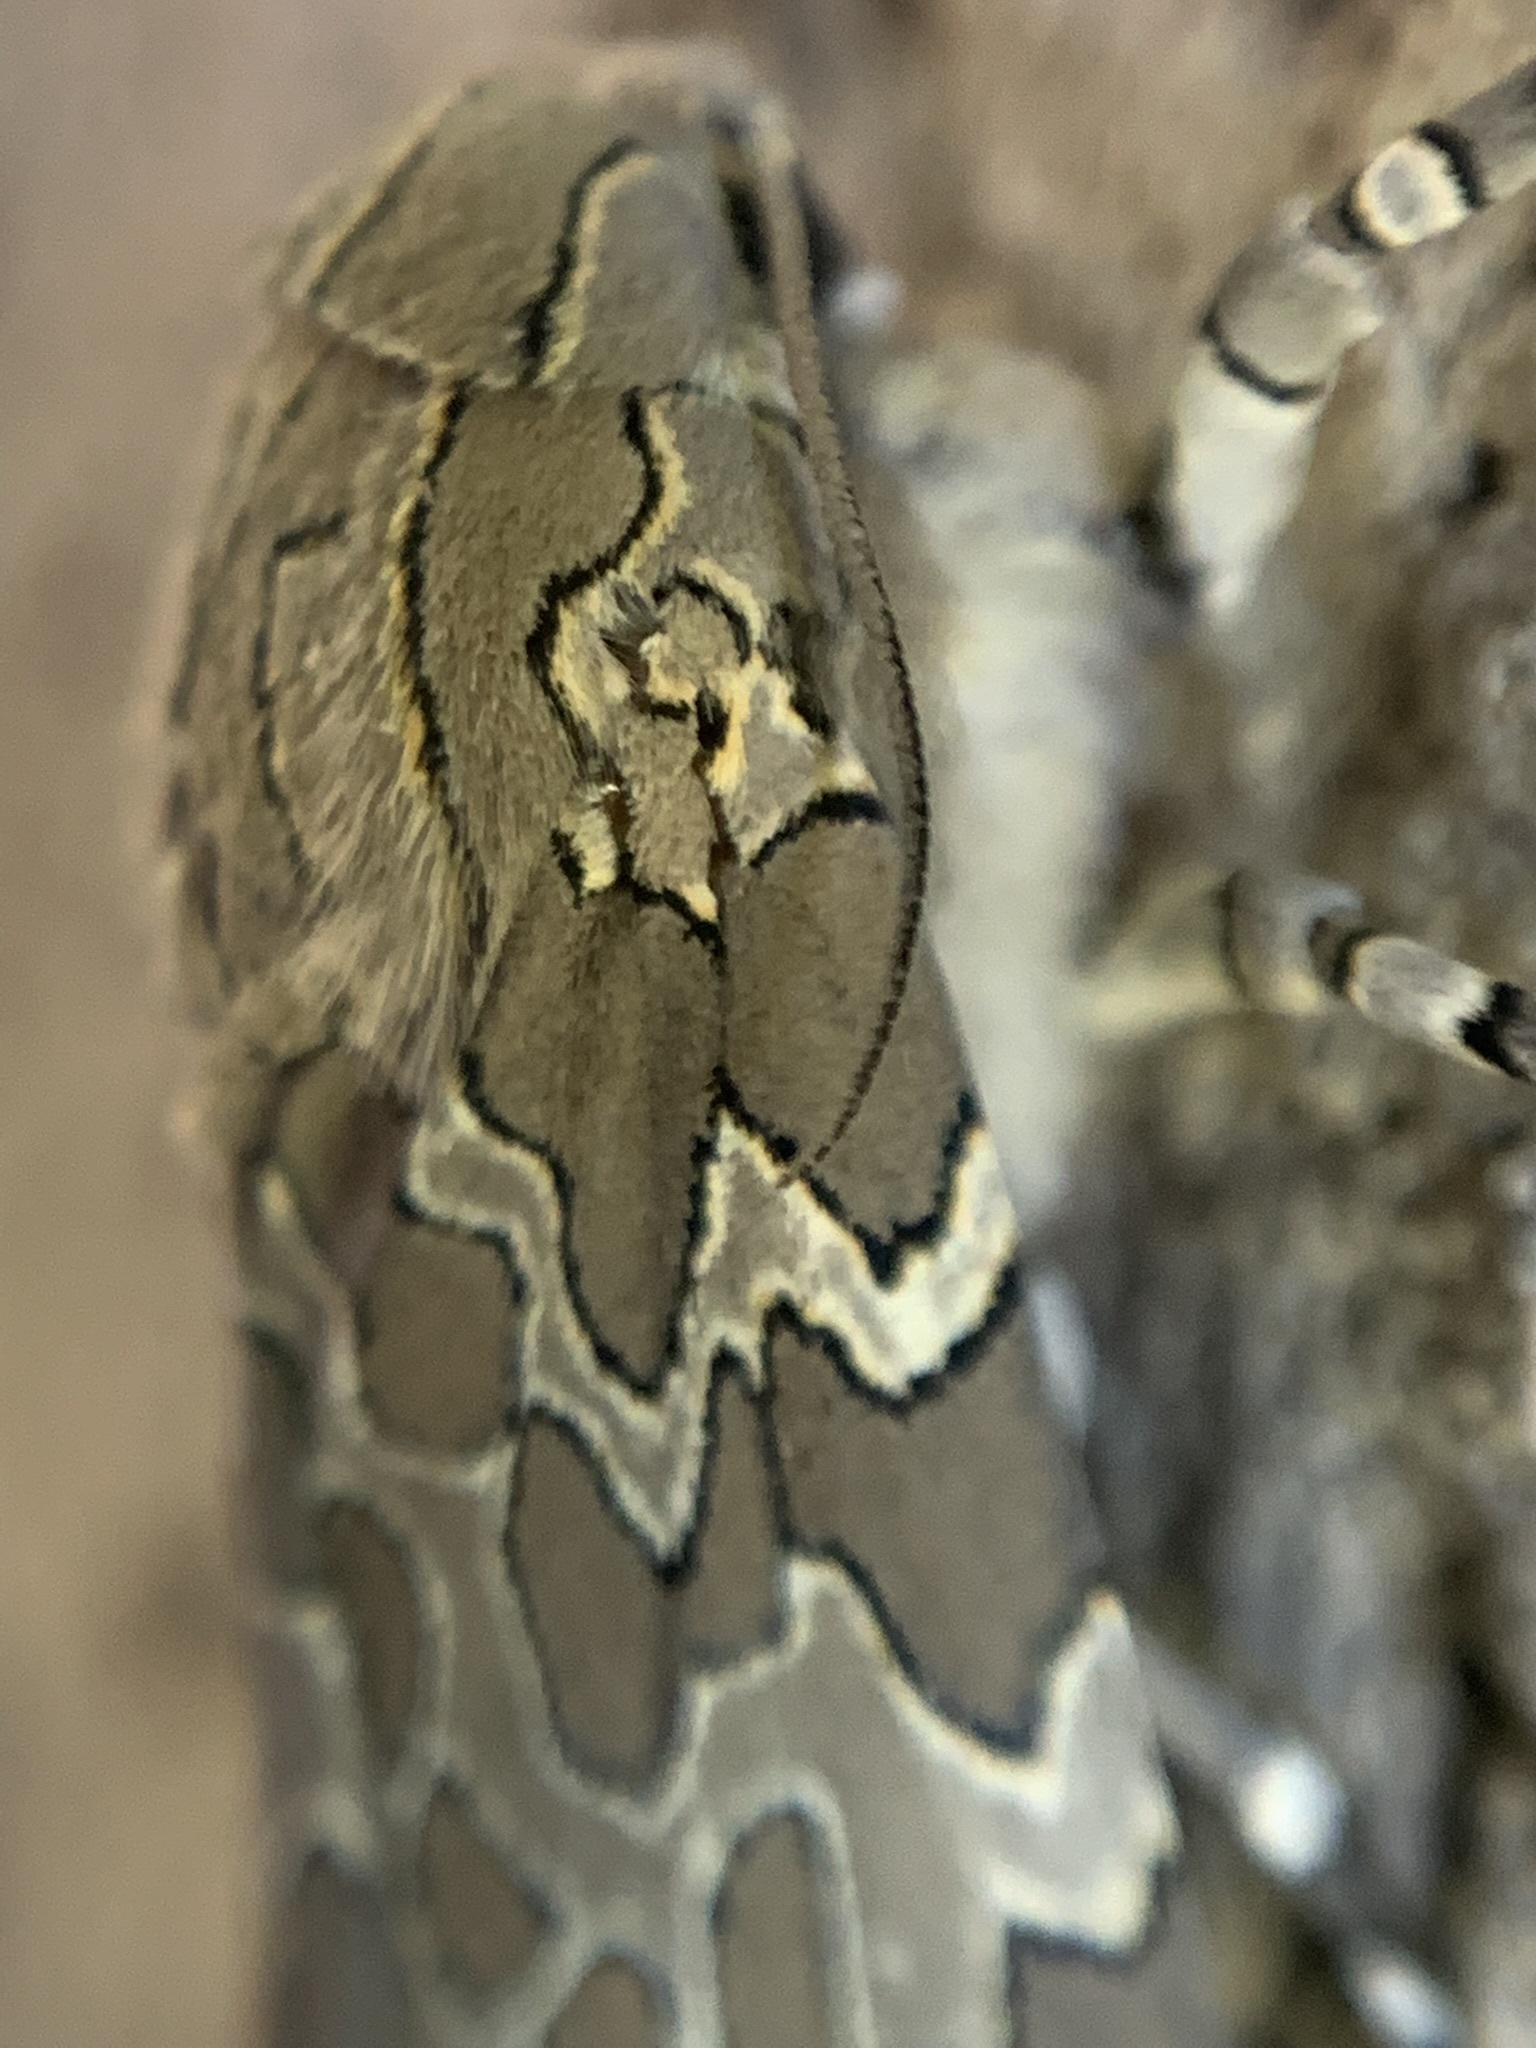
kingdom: Animalia
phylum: Arthropoda
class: Insecta
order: Lepidoptera
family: Erebidae
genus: Hypercompe
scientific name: Hypercompe indecisa
